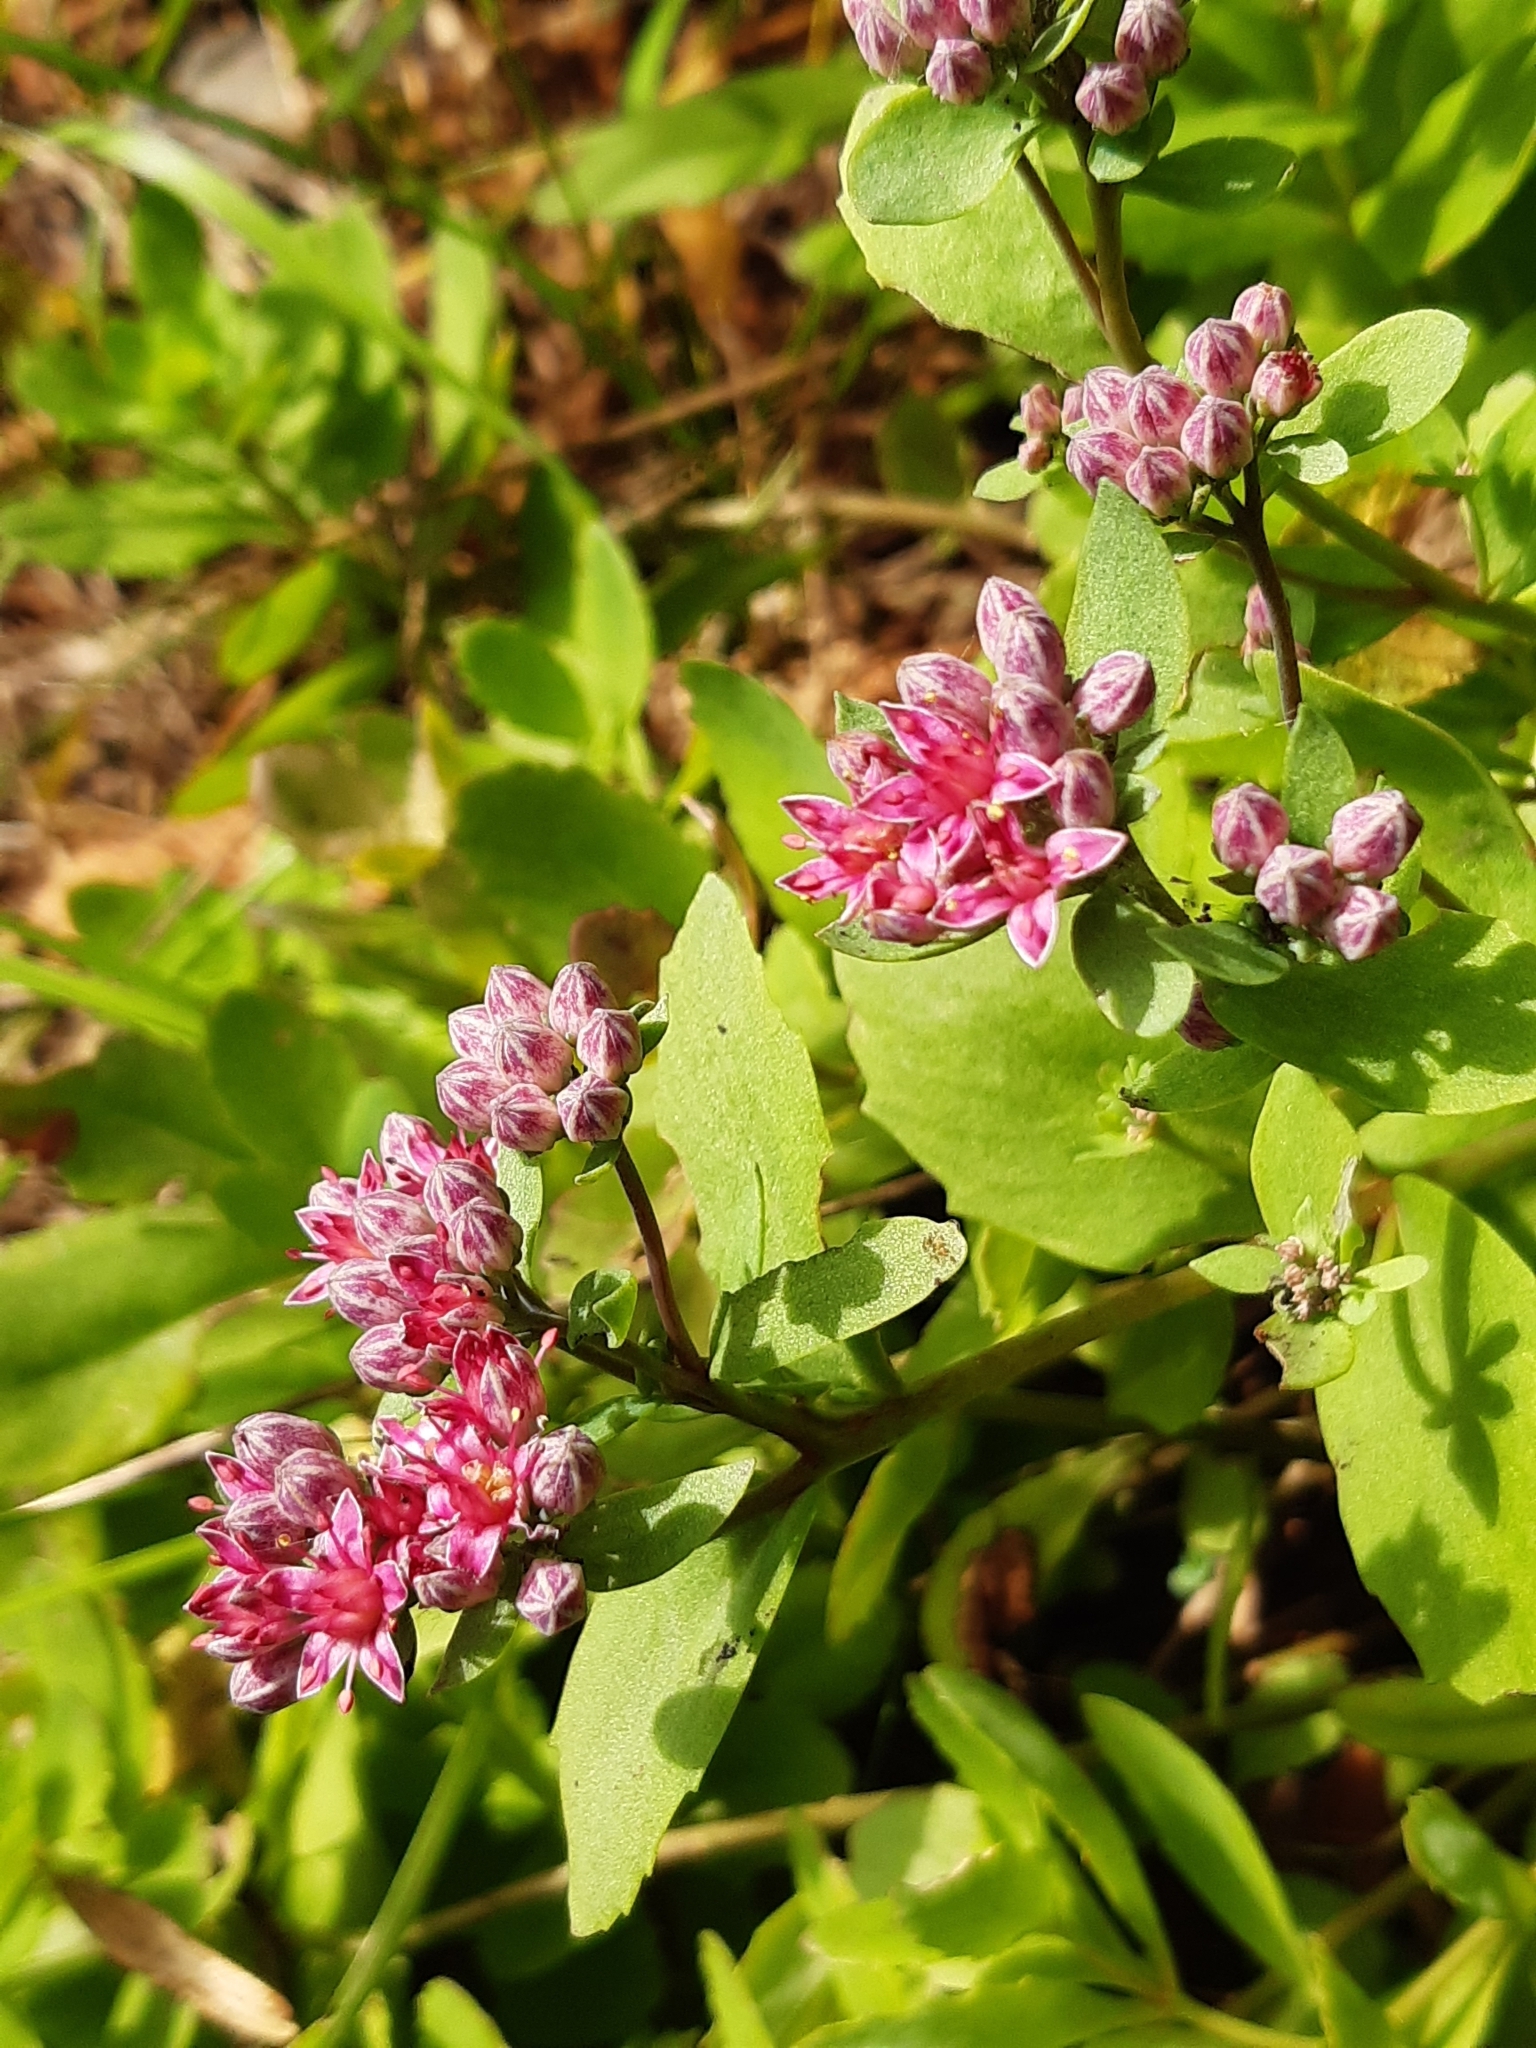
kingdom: Plantae
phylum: Tracheophyta
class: Magnoliopsida
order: Saxifragales
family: Crassulaceae
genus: Hylotelephium
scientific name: Hylotelephium telephium
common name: Live-forever
